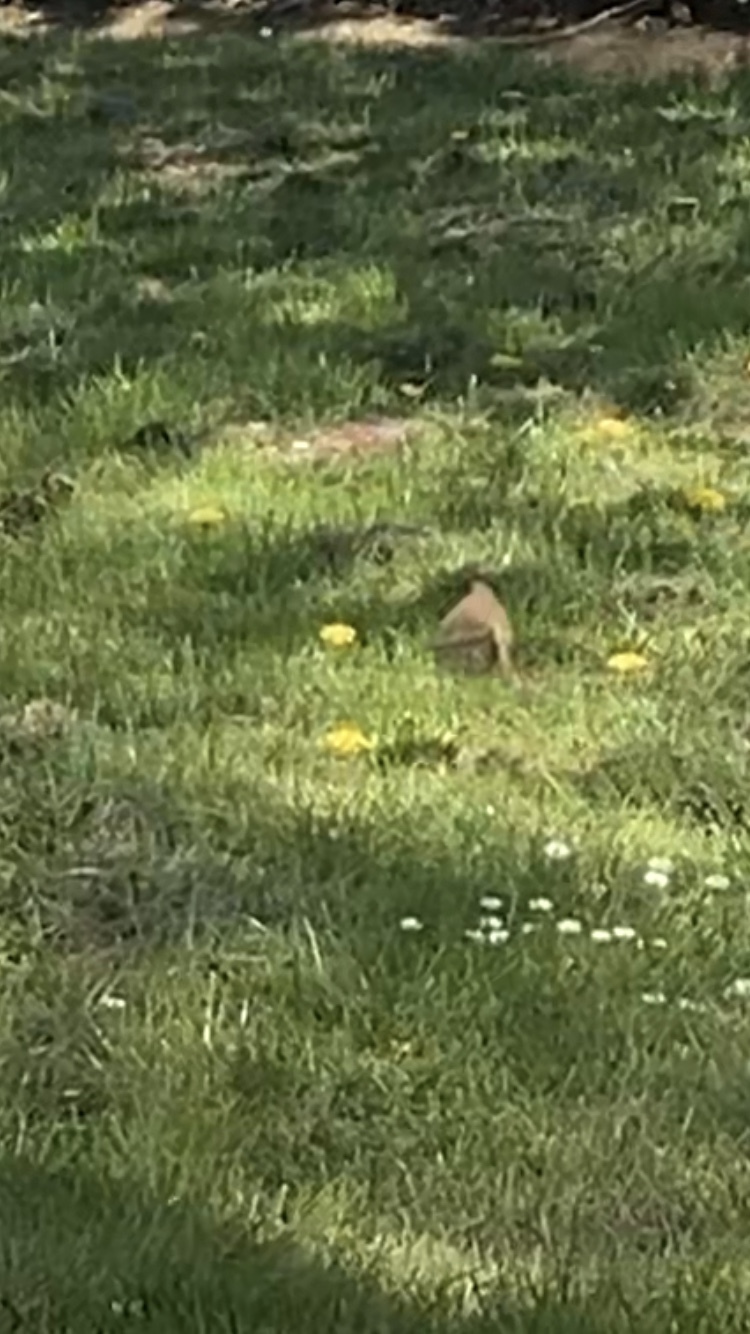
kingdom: Animalia
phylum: Chordata
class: Aves
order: Passeriformes
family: Muscicapidae
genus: Erithacus
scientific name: Erithacus rubecula
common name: European robin
